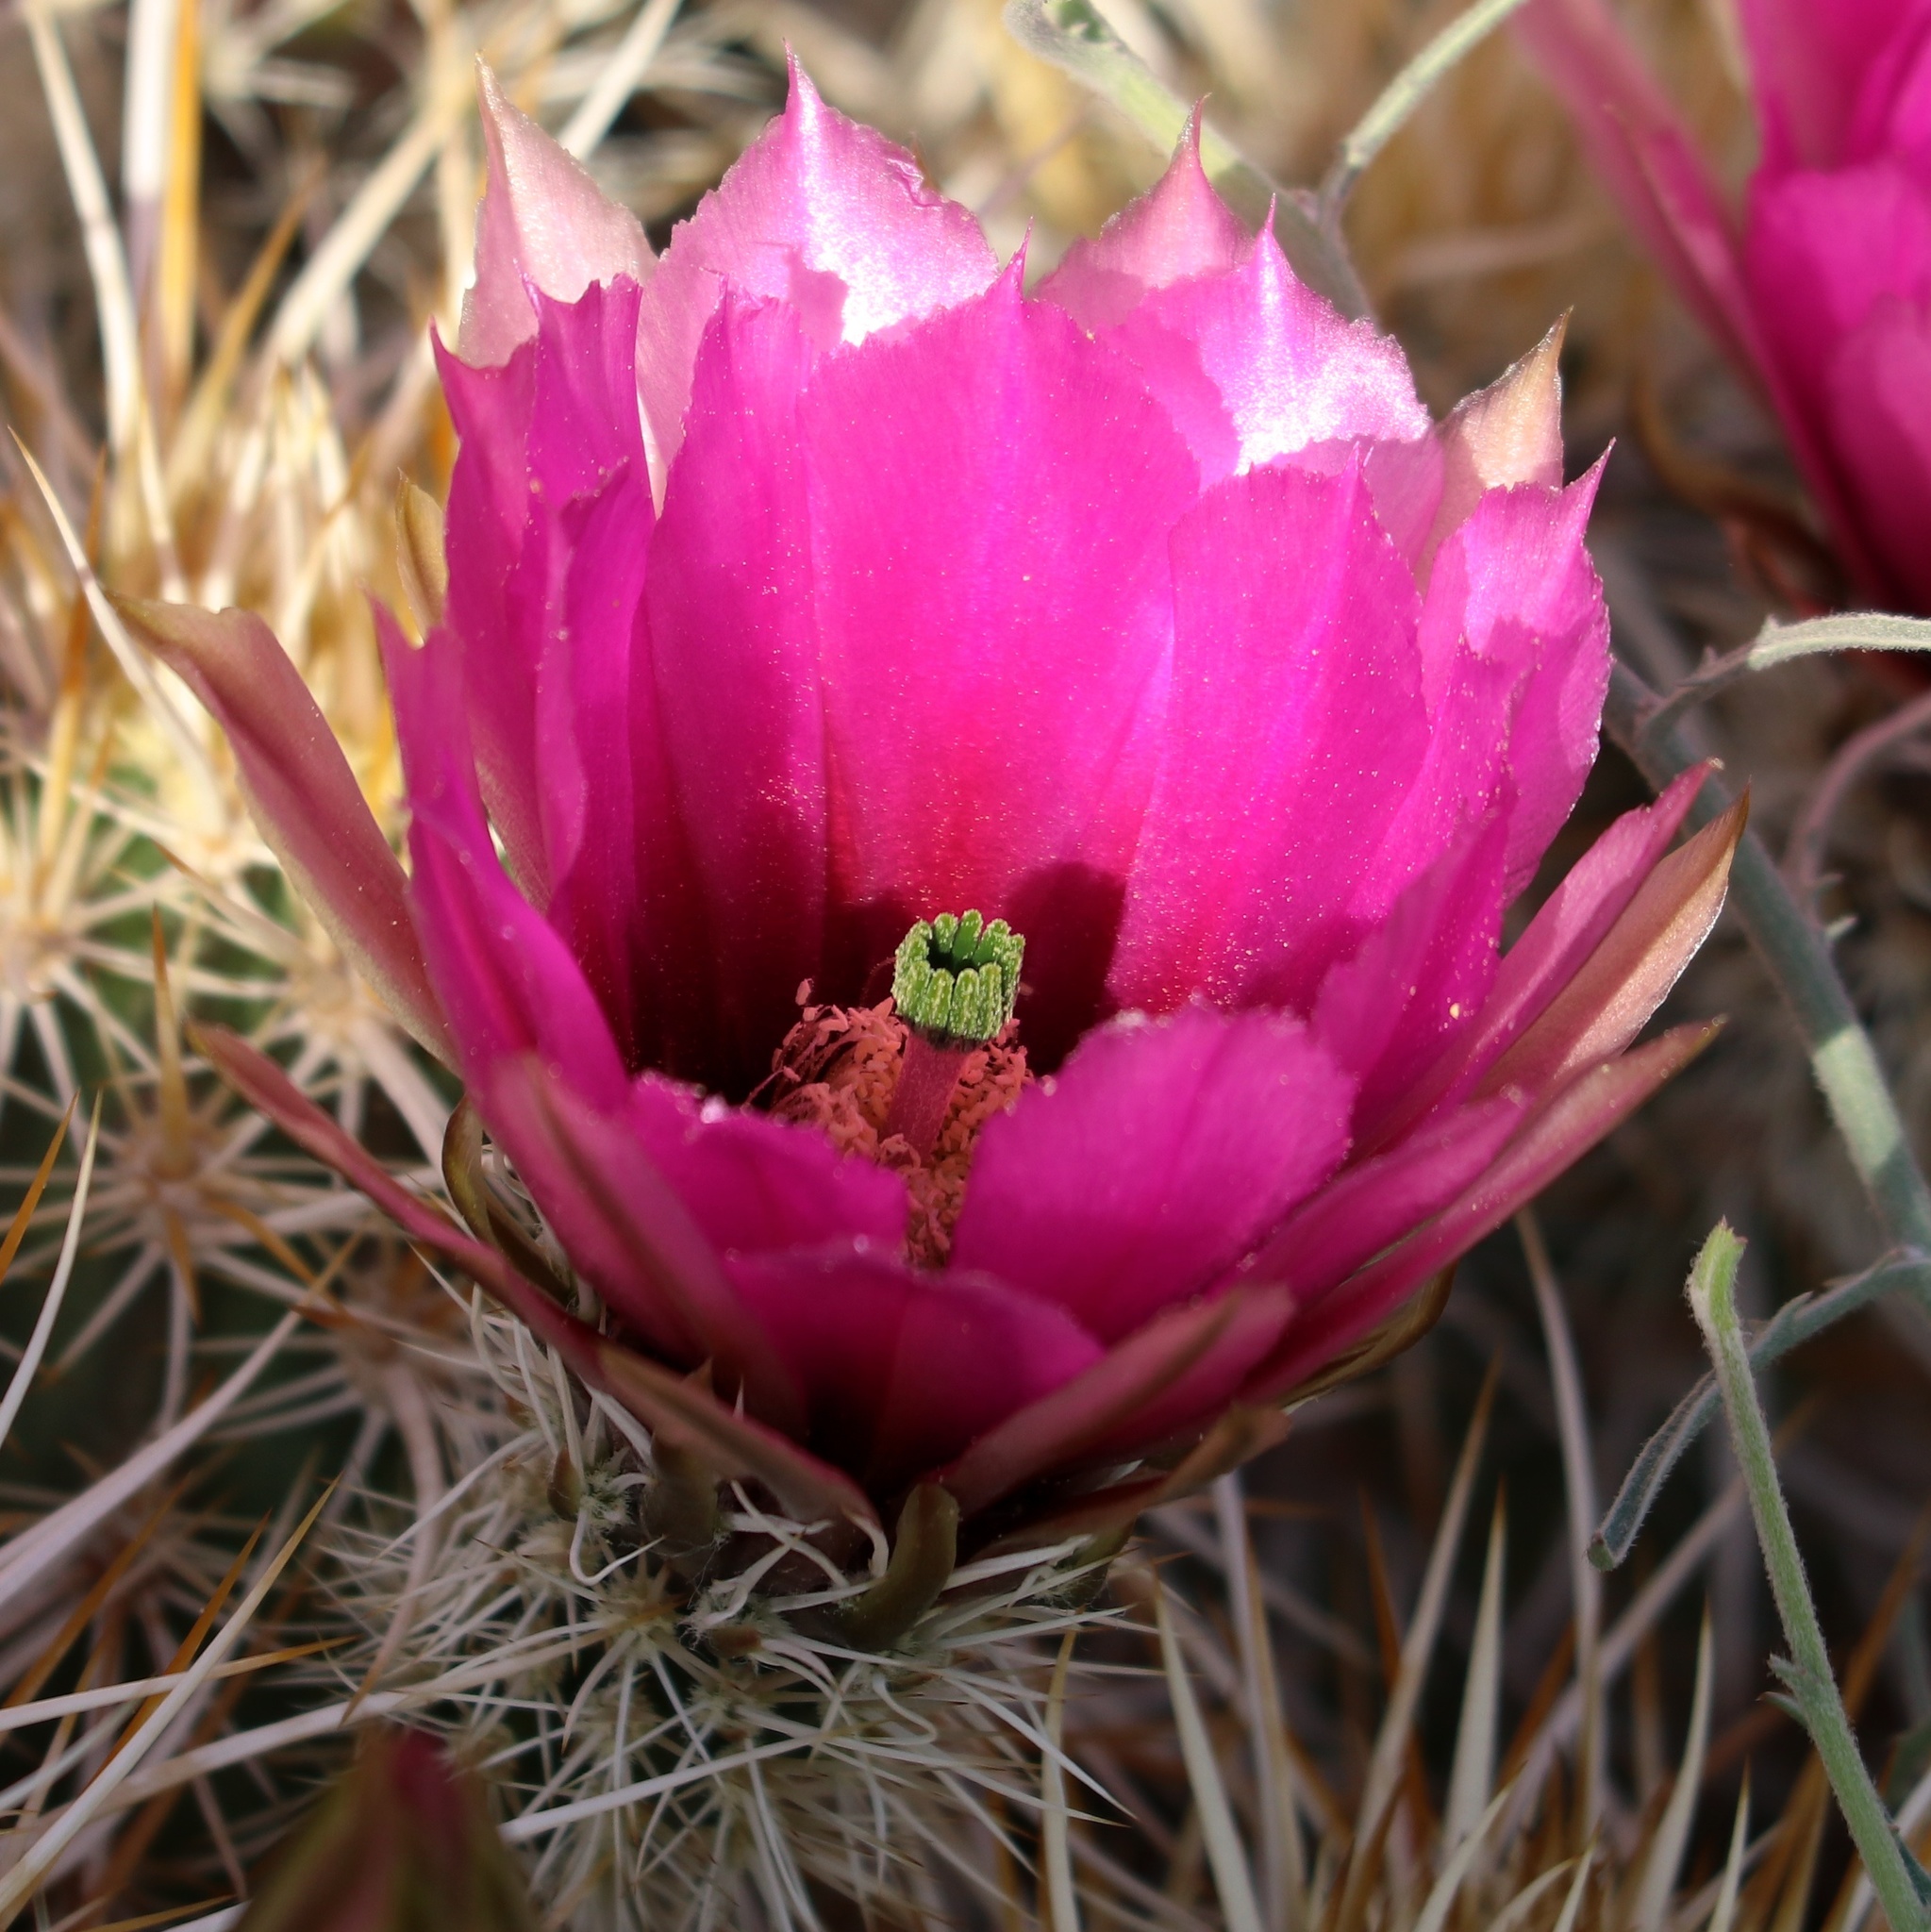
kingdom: Plantae
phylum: Tracheophyta
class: Magnoliopsida
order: Caryophyllales
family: Cactaceae
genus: Echinocereus
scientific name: Echinocereus engelmannii
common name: Engelmann's hedgehog cactus
